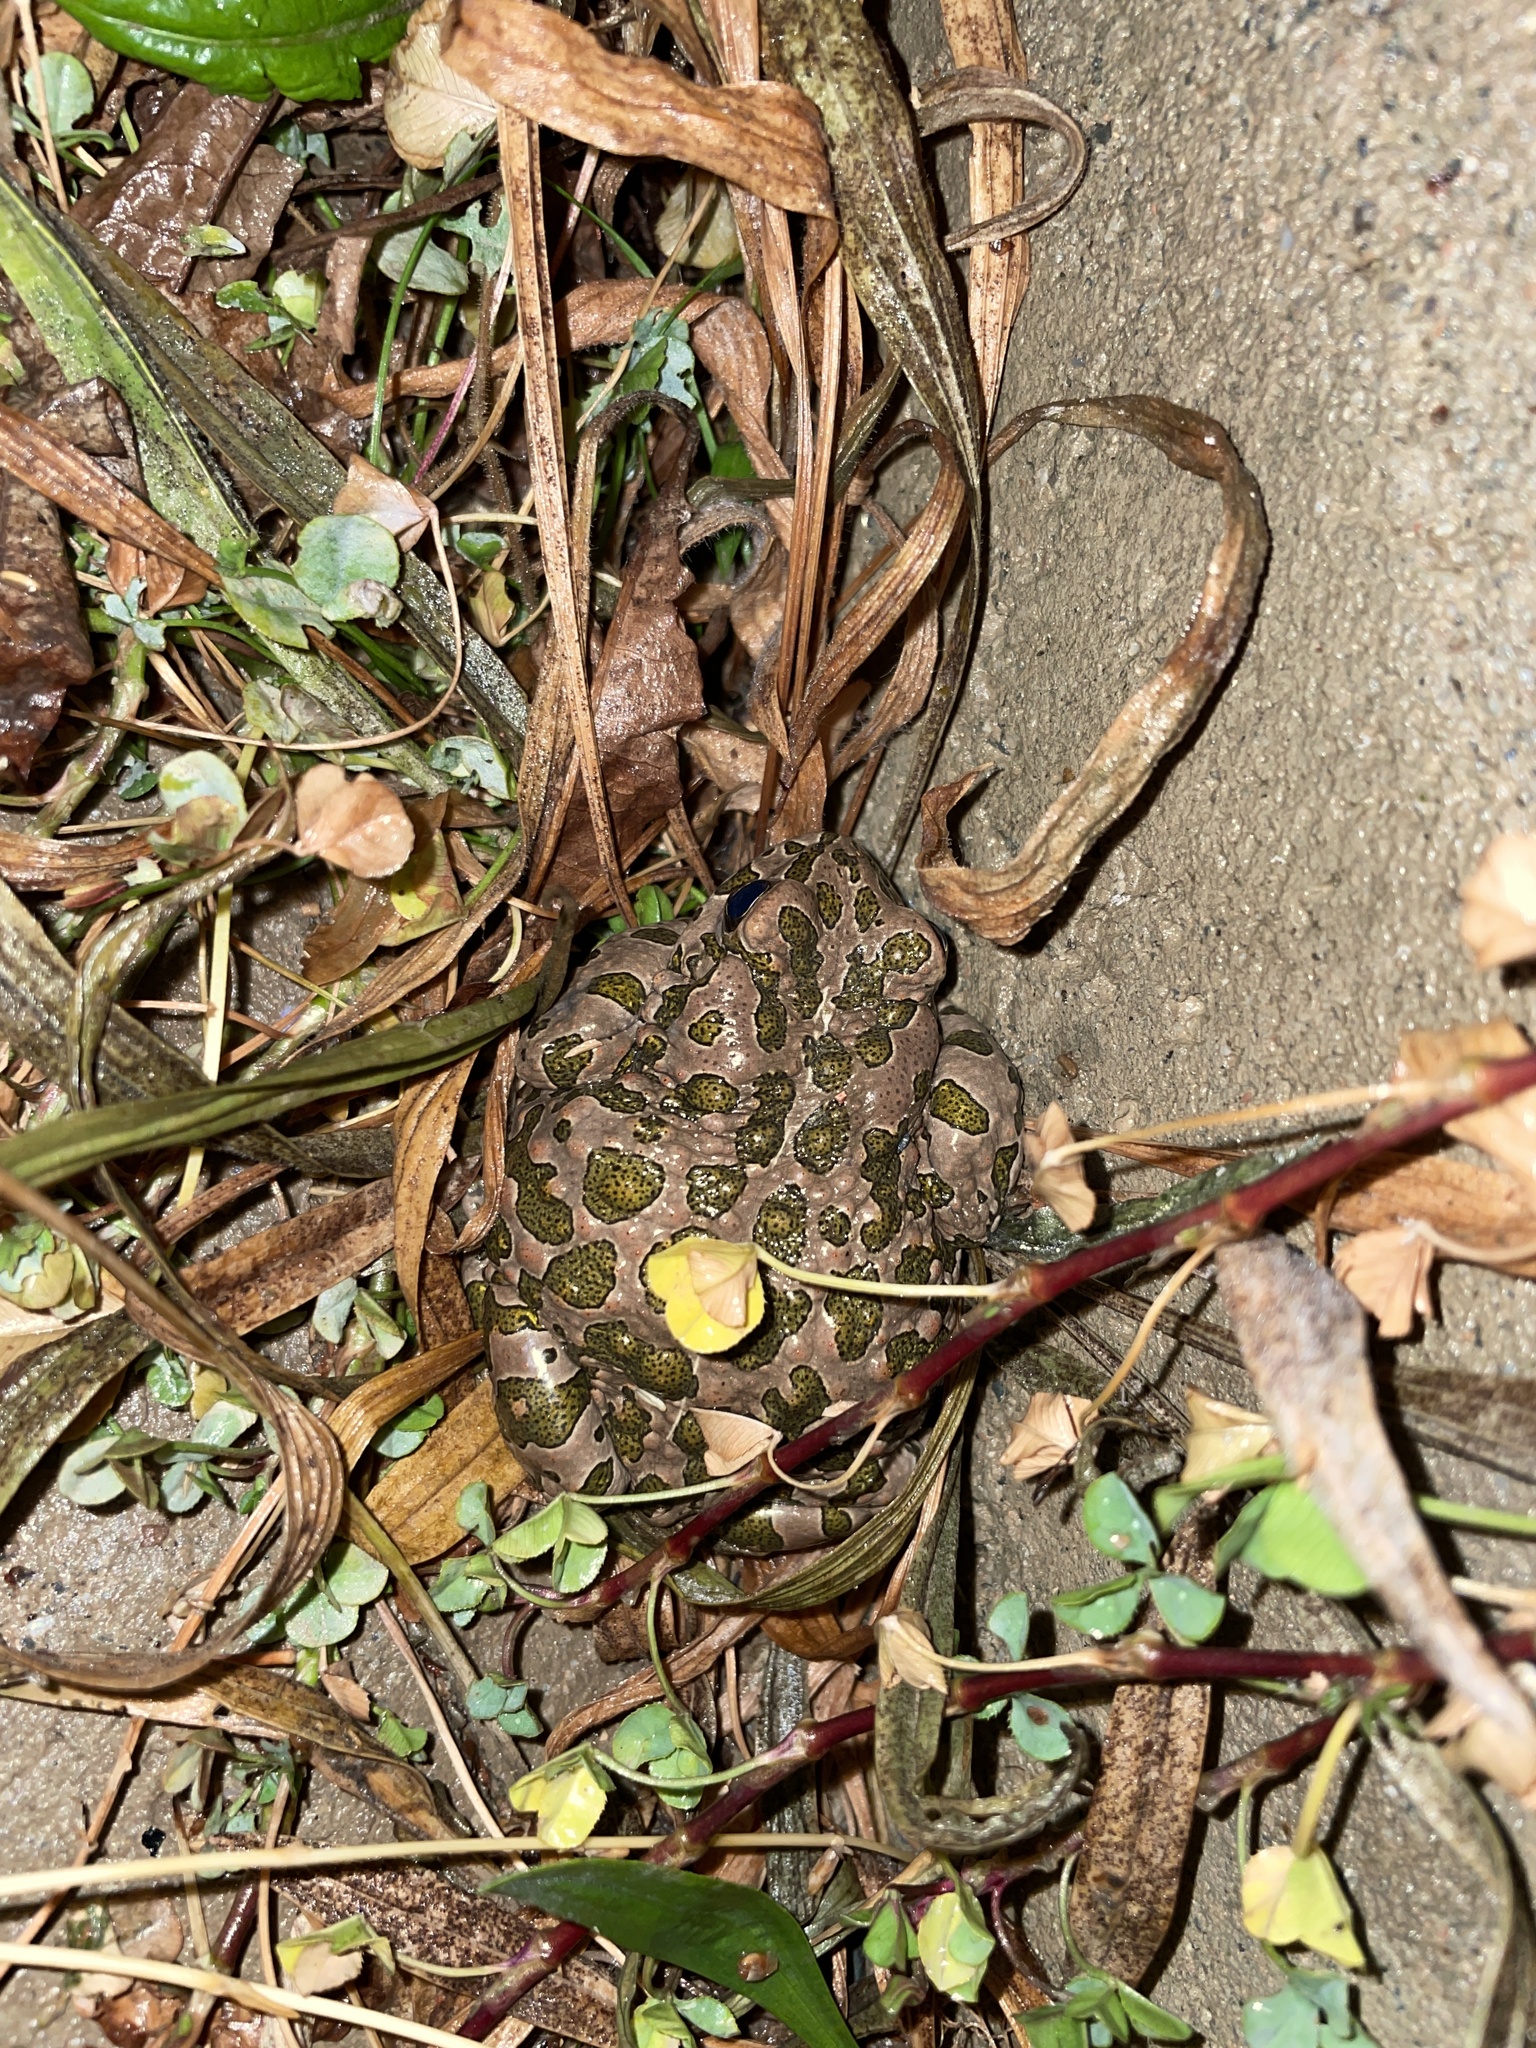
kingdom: Animalia
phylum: Chordata
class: Amphibia
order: Anura
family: Bufonidae
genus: Bufotes
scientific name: Bufotes pewzowi
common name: Xinjiang toad
